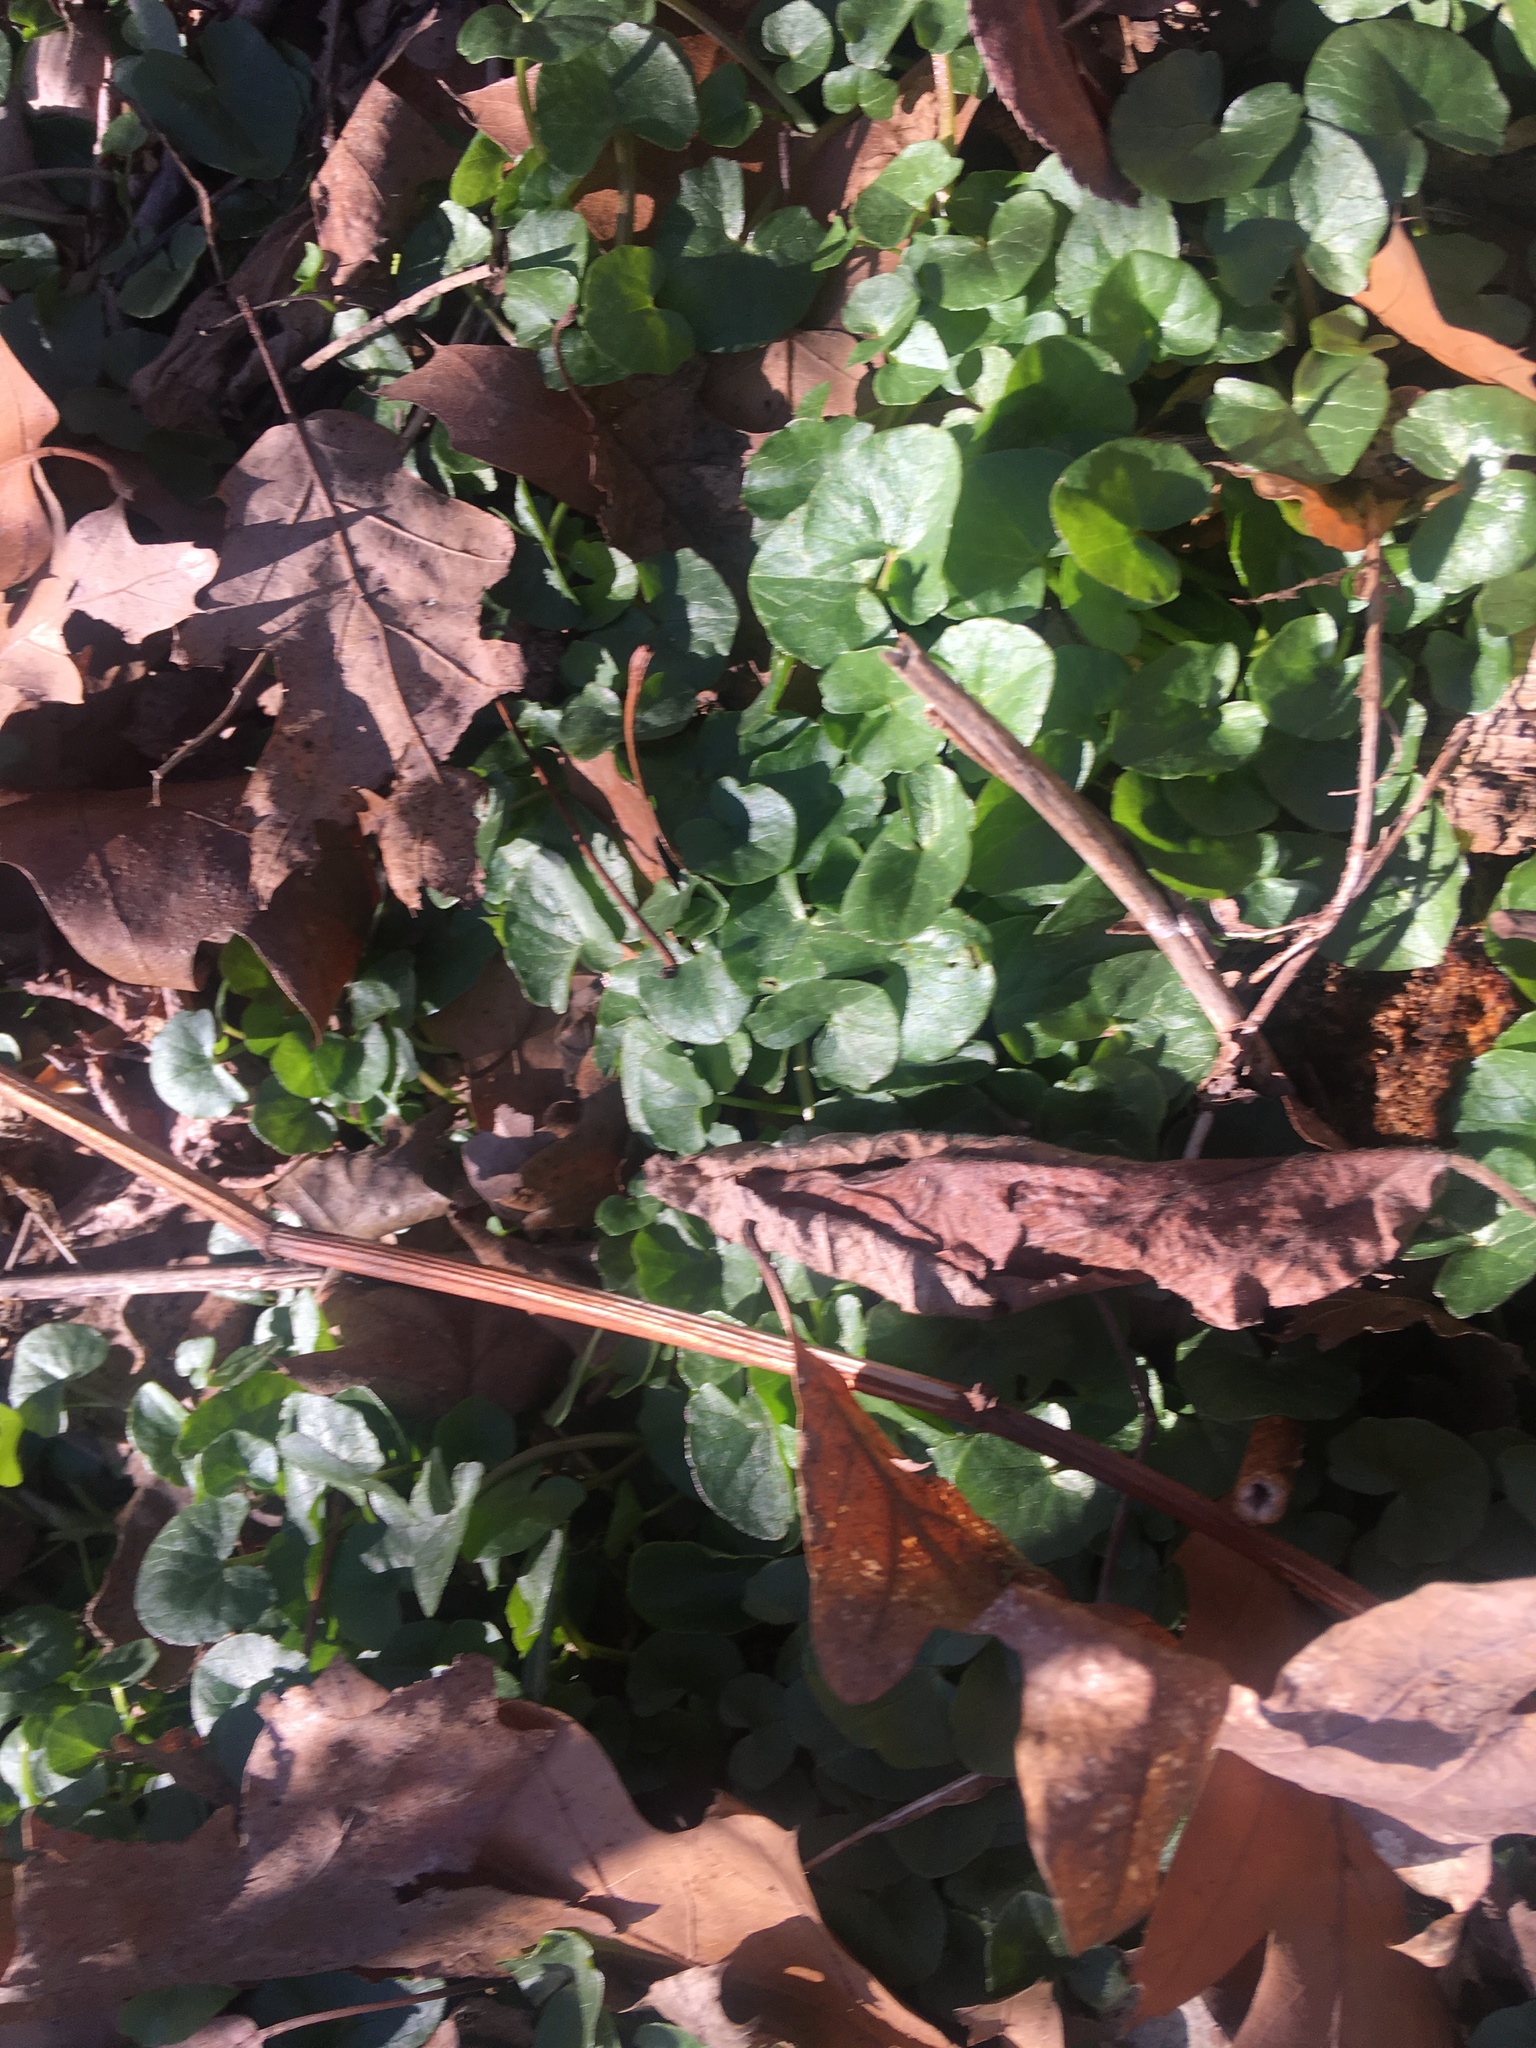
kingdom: Plantae
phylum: Tracheophyta
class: Magnoliopsida
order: Ranunculales
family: Ranunculaceae
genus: Ficaria
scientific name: Ficaria verna
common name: Lesser celandine
